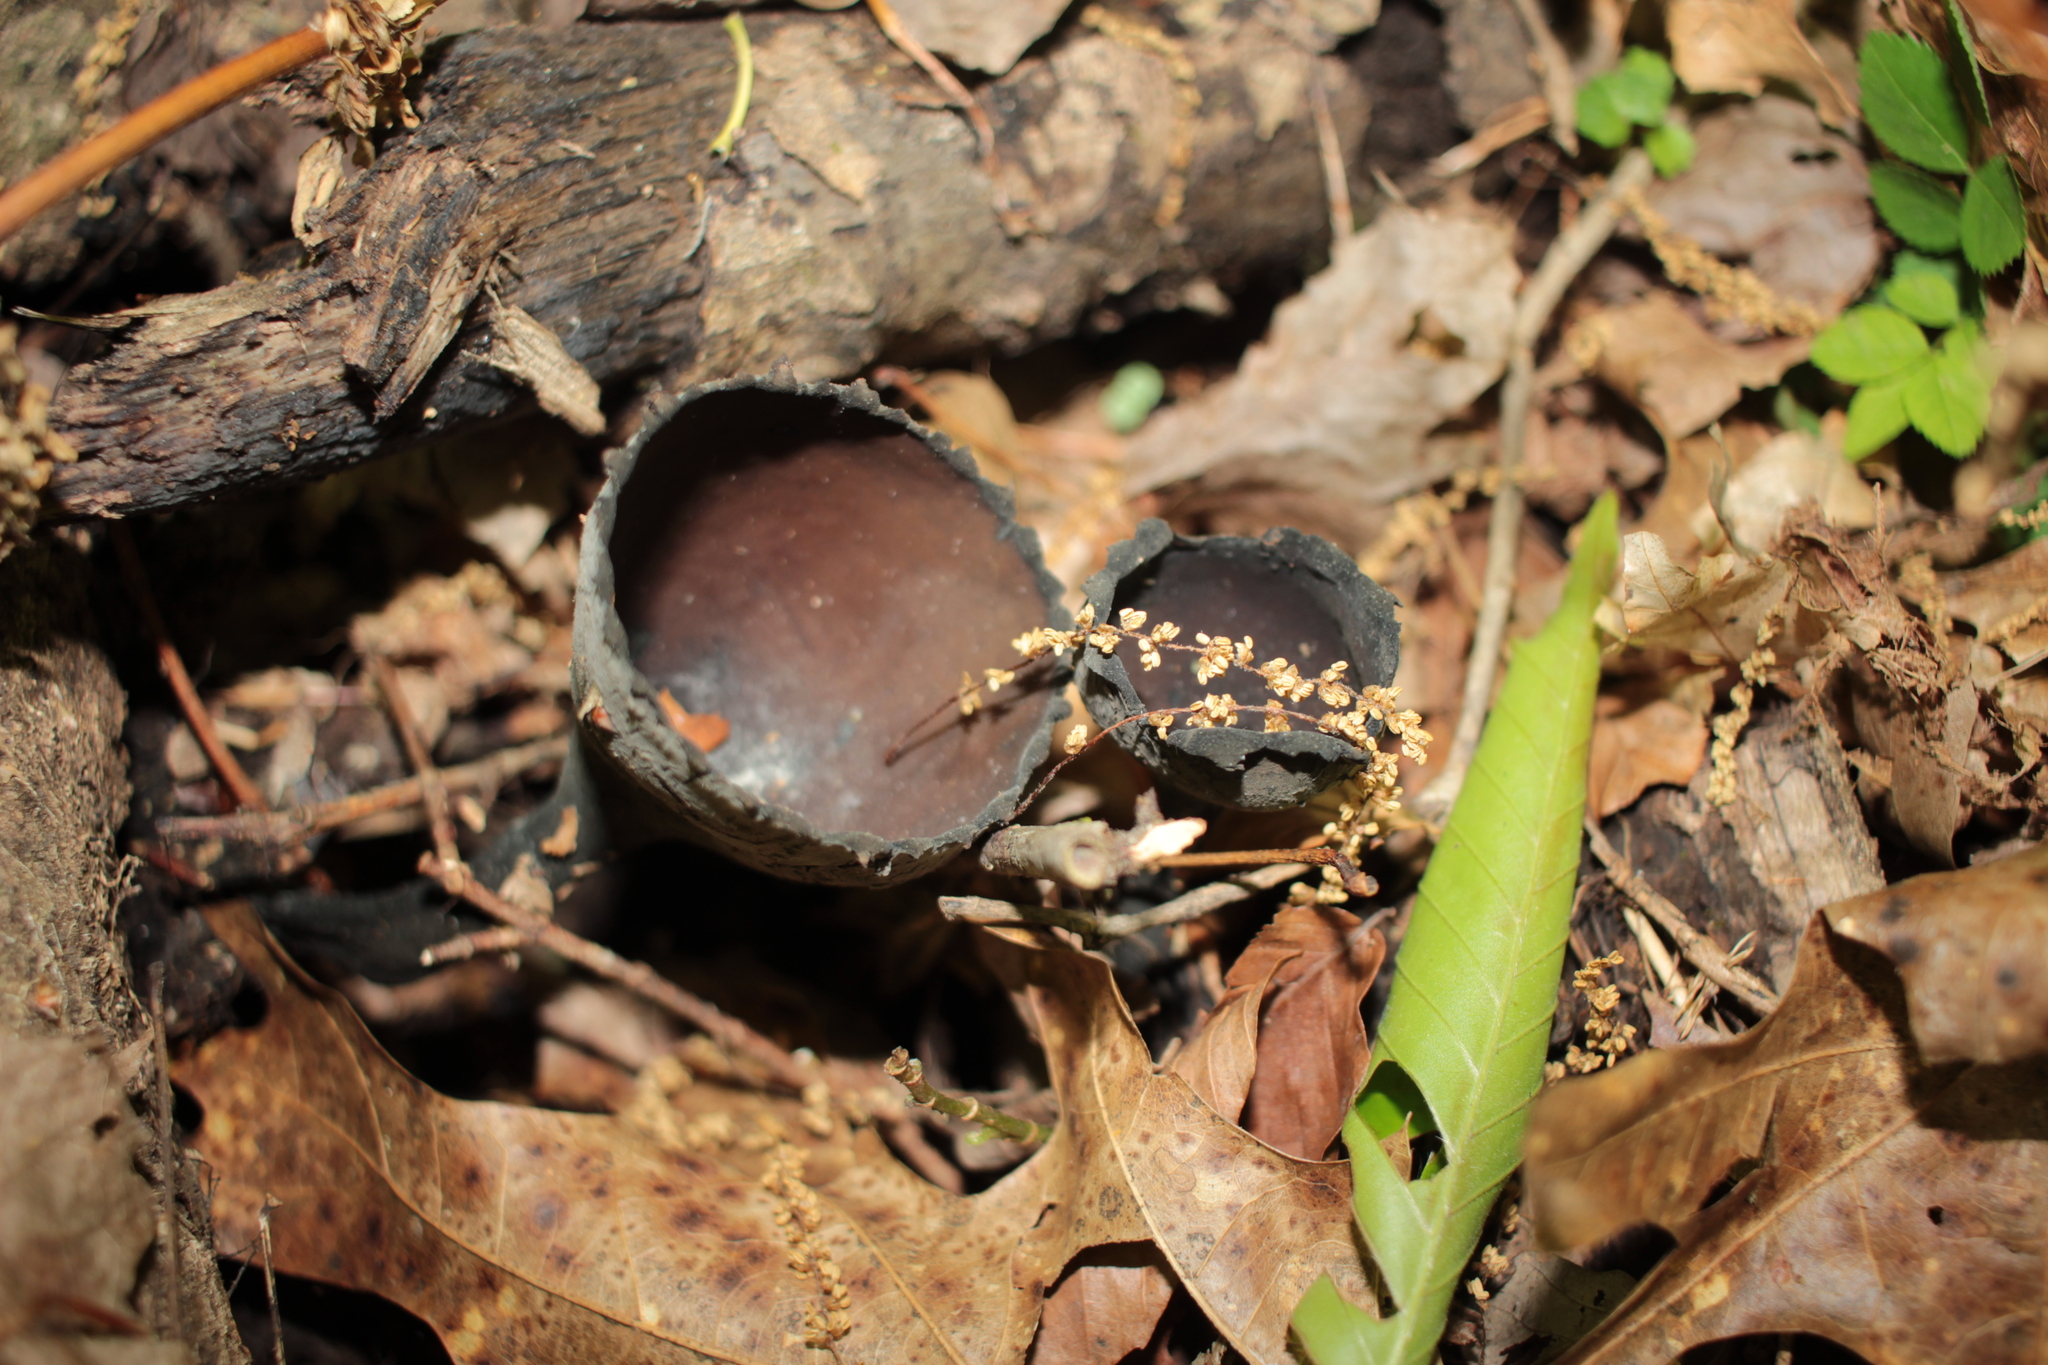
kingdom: Fungi
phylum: Ascomycota
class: Pezizomycetes
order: Pezizales
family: Sarcosomataceae
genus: Urnula
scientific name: Urnula craterium
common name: Devil's urn
